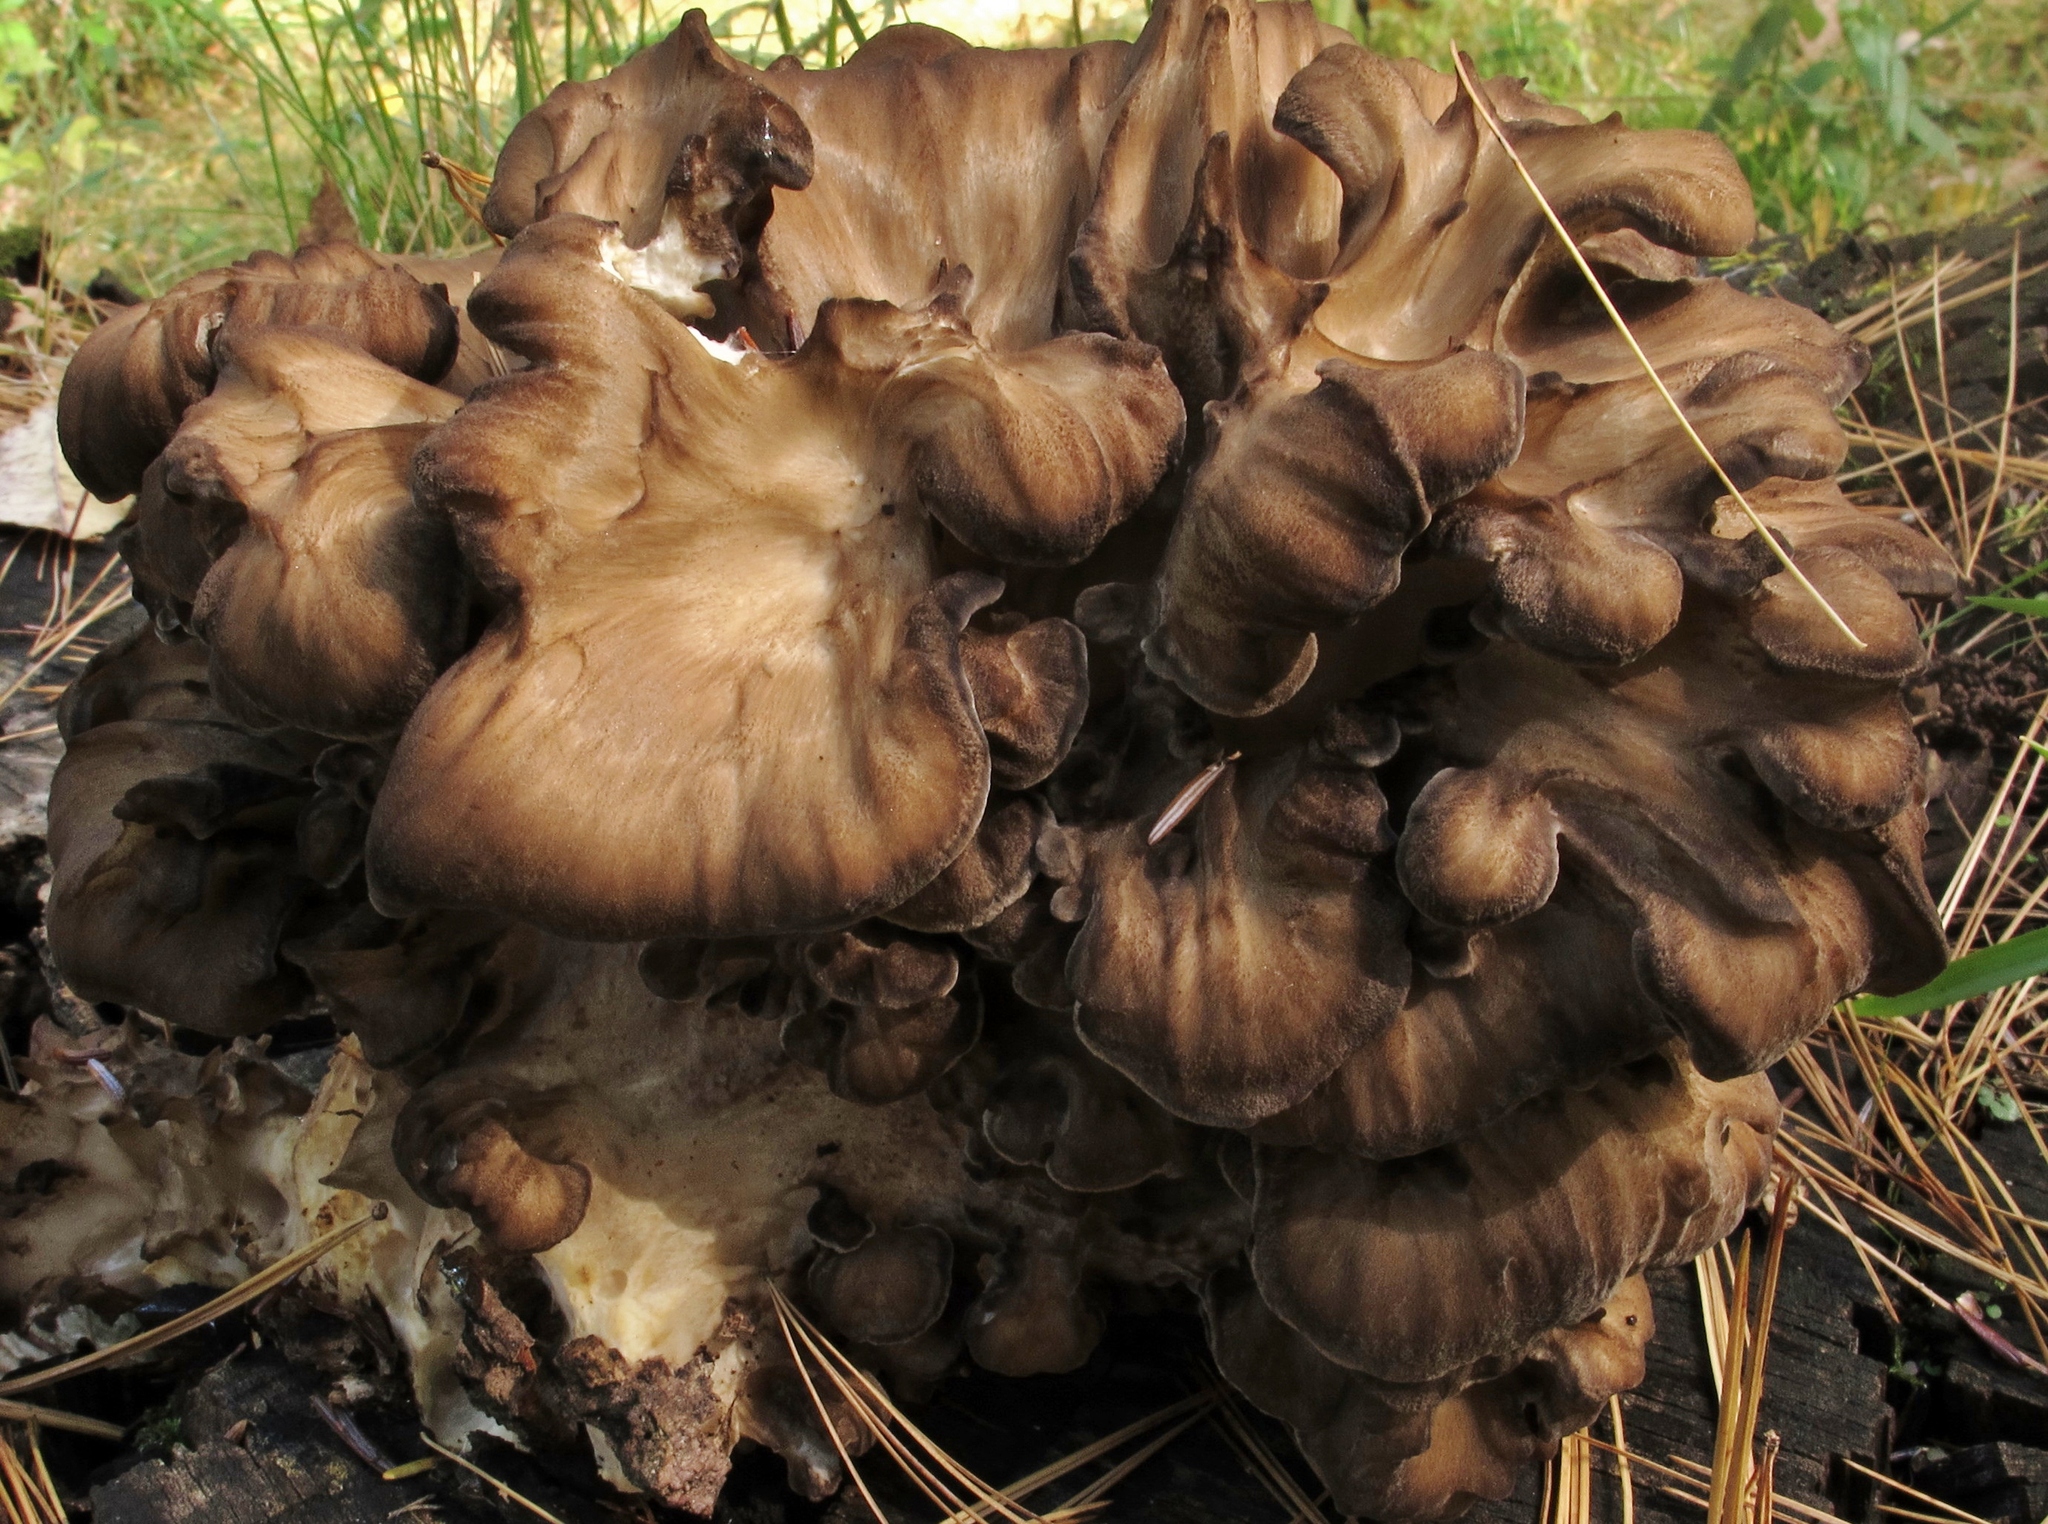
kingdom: Fungi
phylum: Basidiomycota
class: Agaricomycetes
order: Polyporales
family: Grifolaceae
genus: Grifola
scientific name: Grifola frondosa
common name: Hen of the woods
